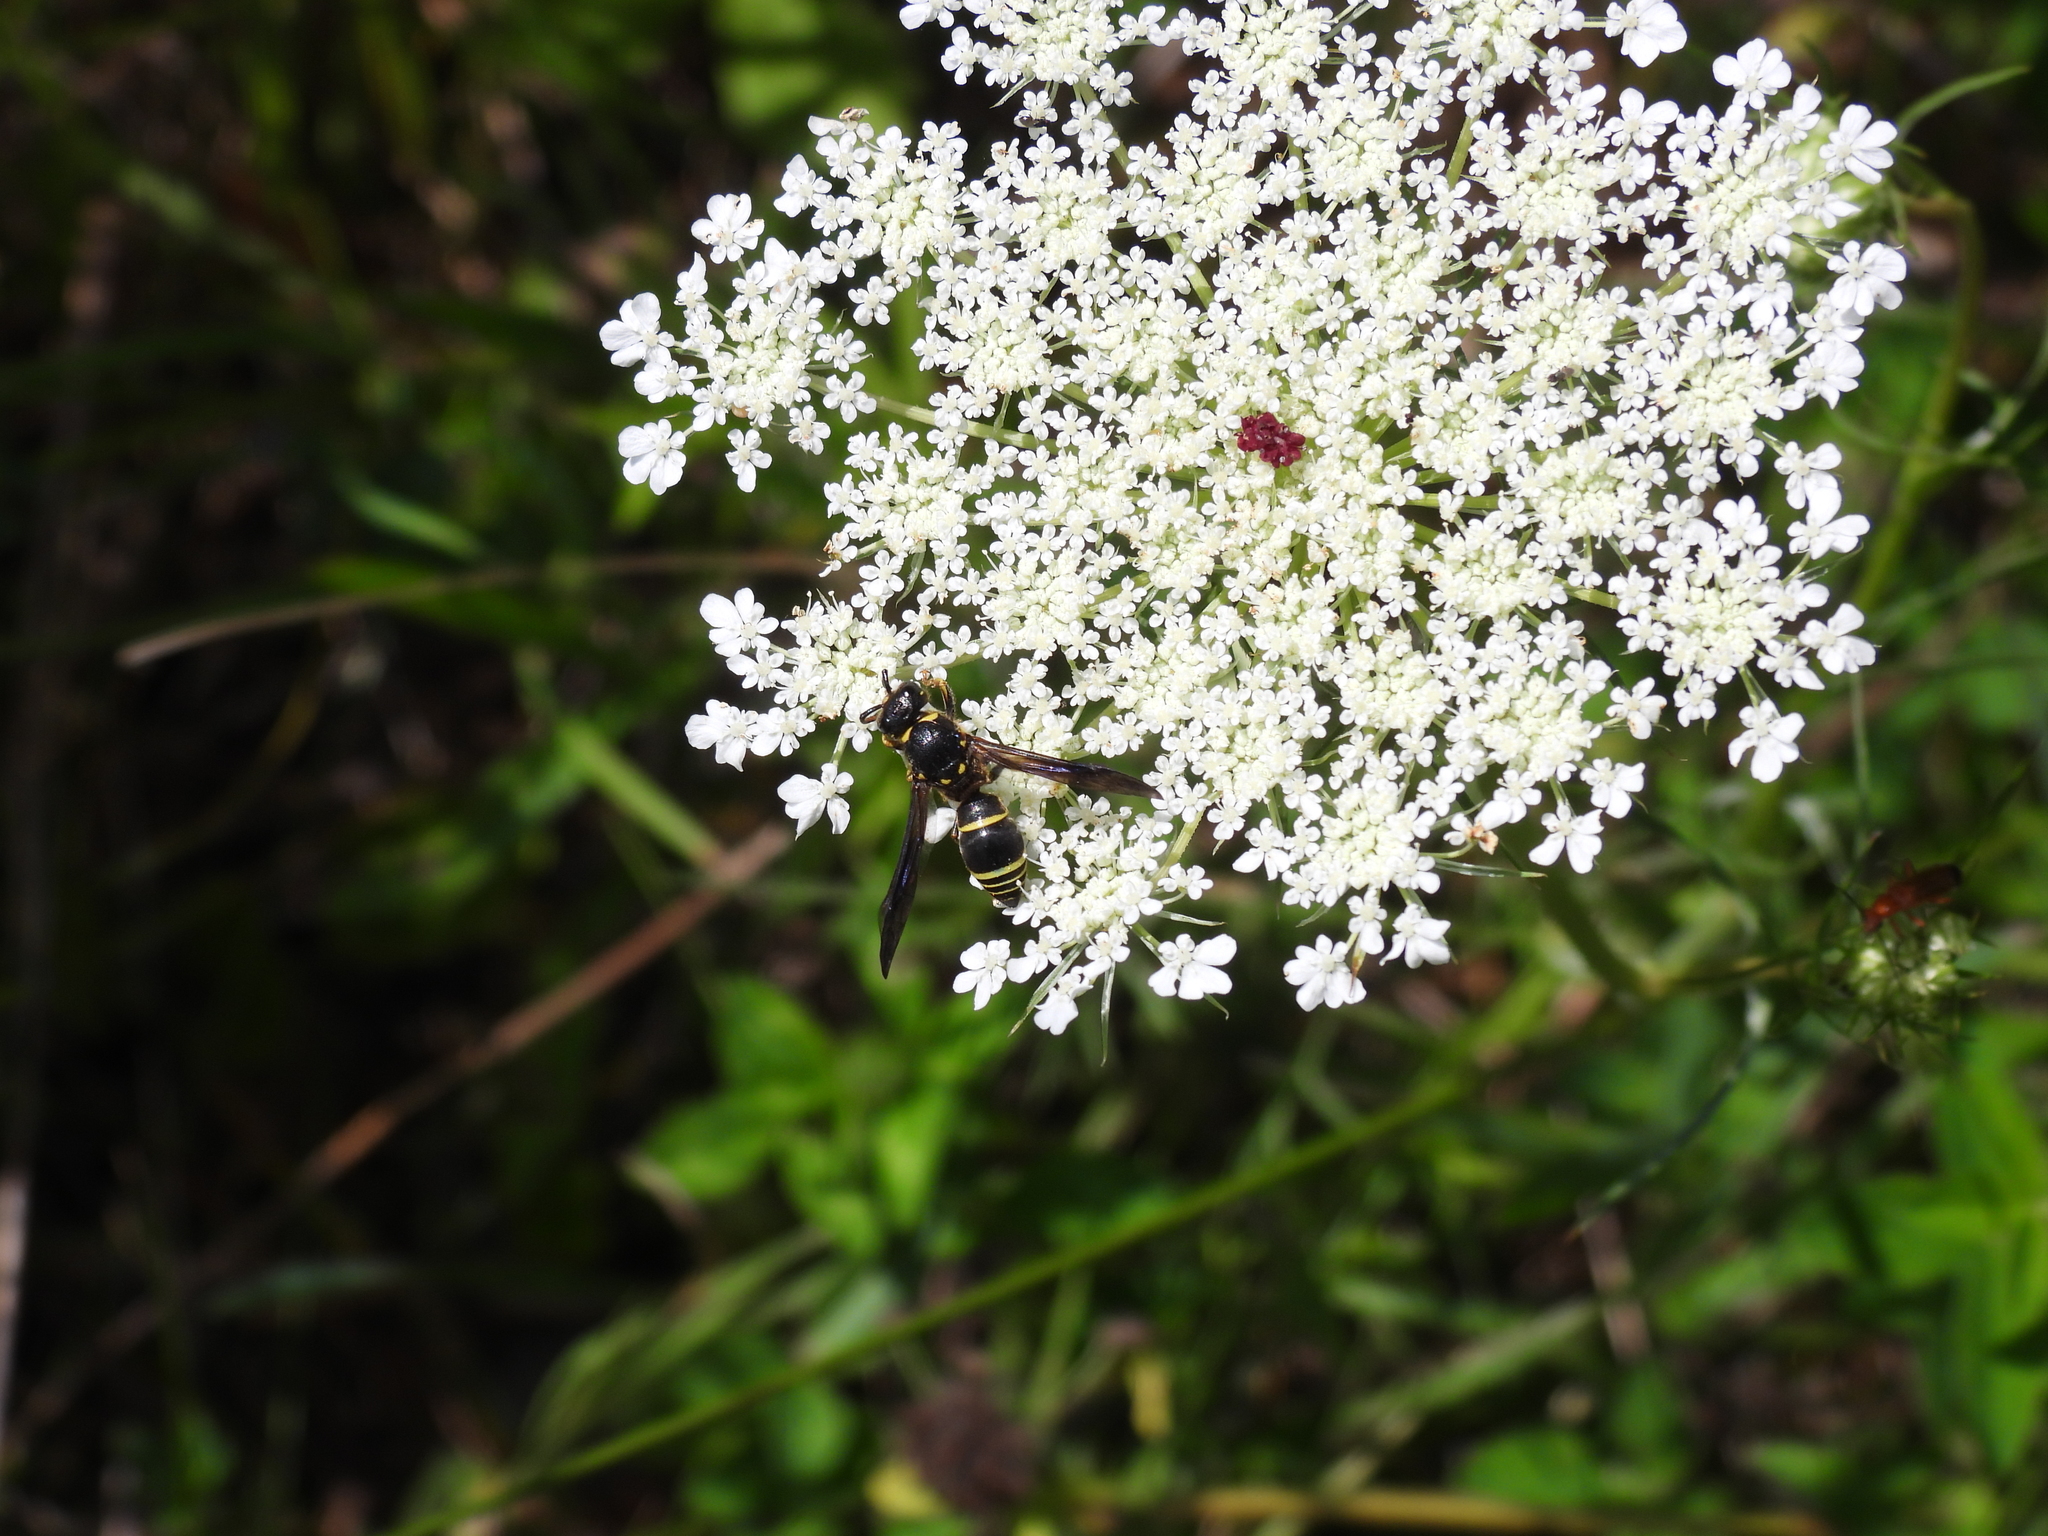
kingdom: Animalia
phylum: Arthropoda
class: Insecta
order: Hymenoptera
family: Vespidae
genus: Ancistrocerus
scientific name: Ancistrocerus
